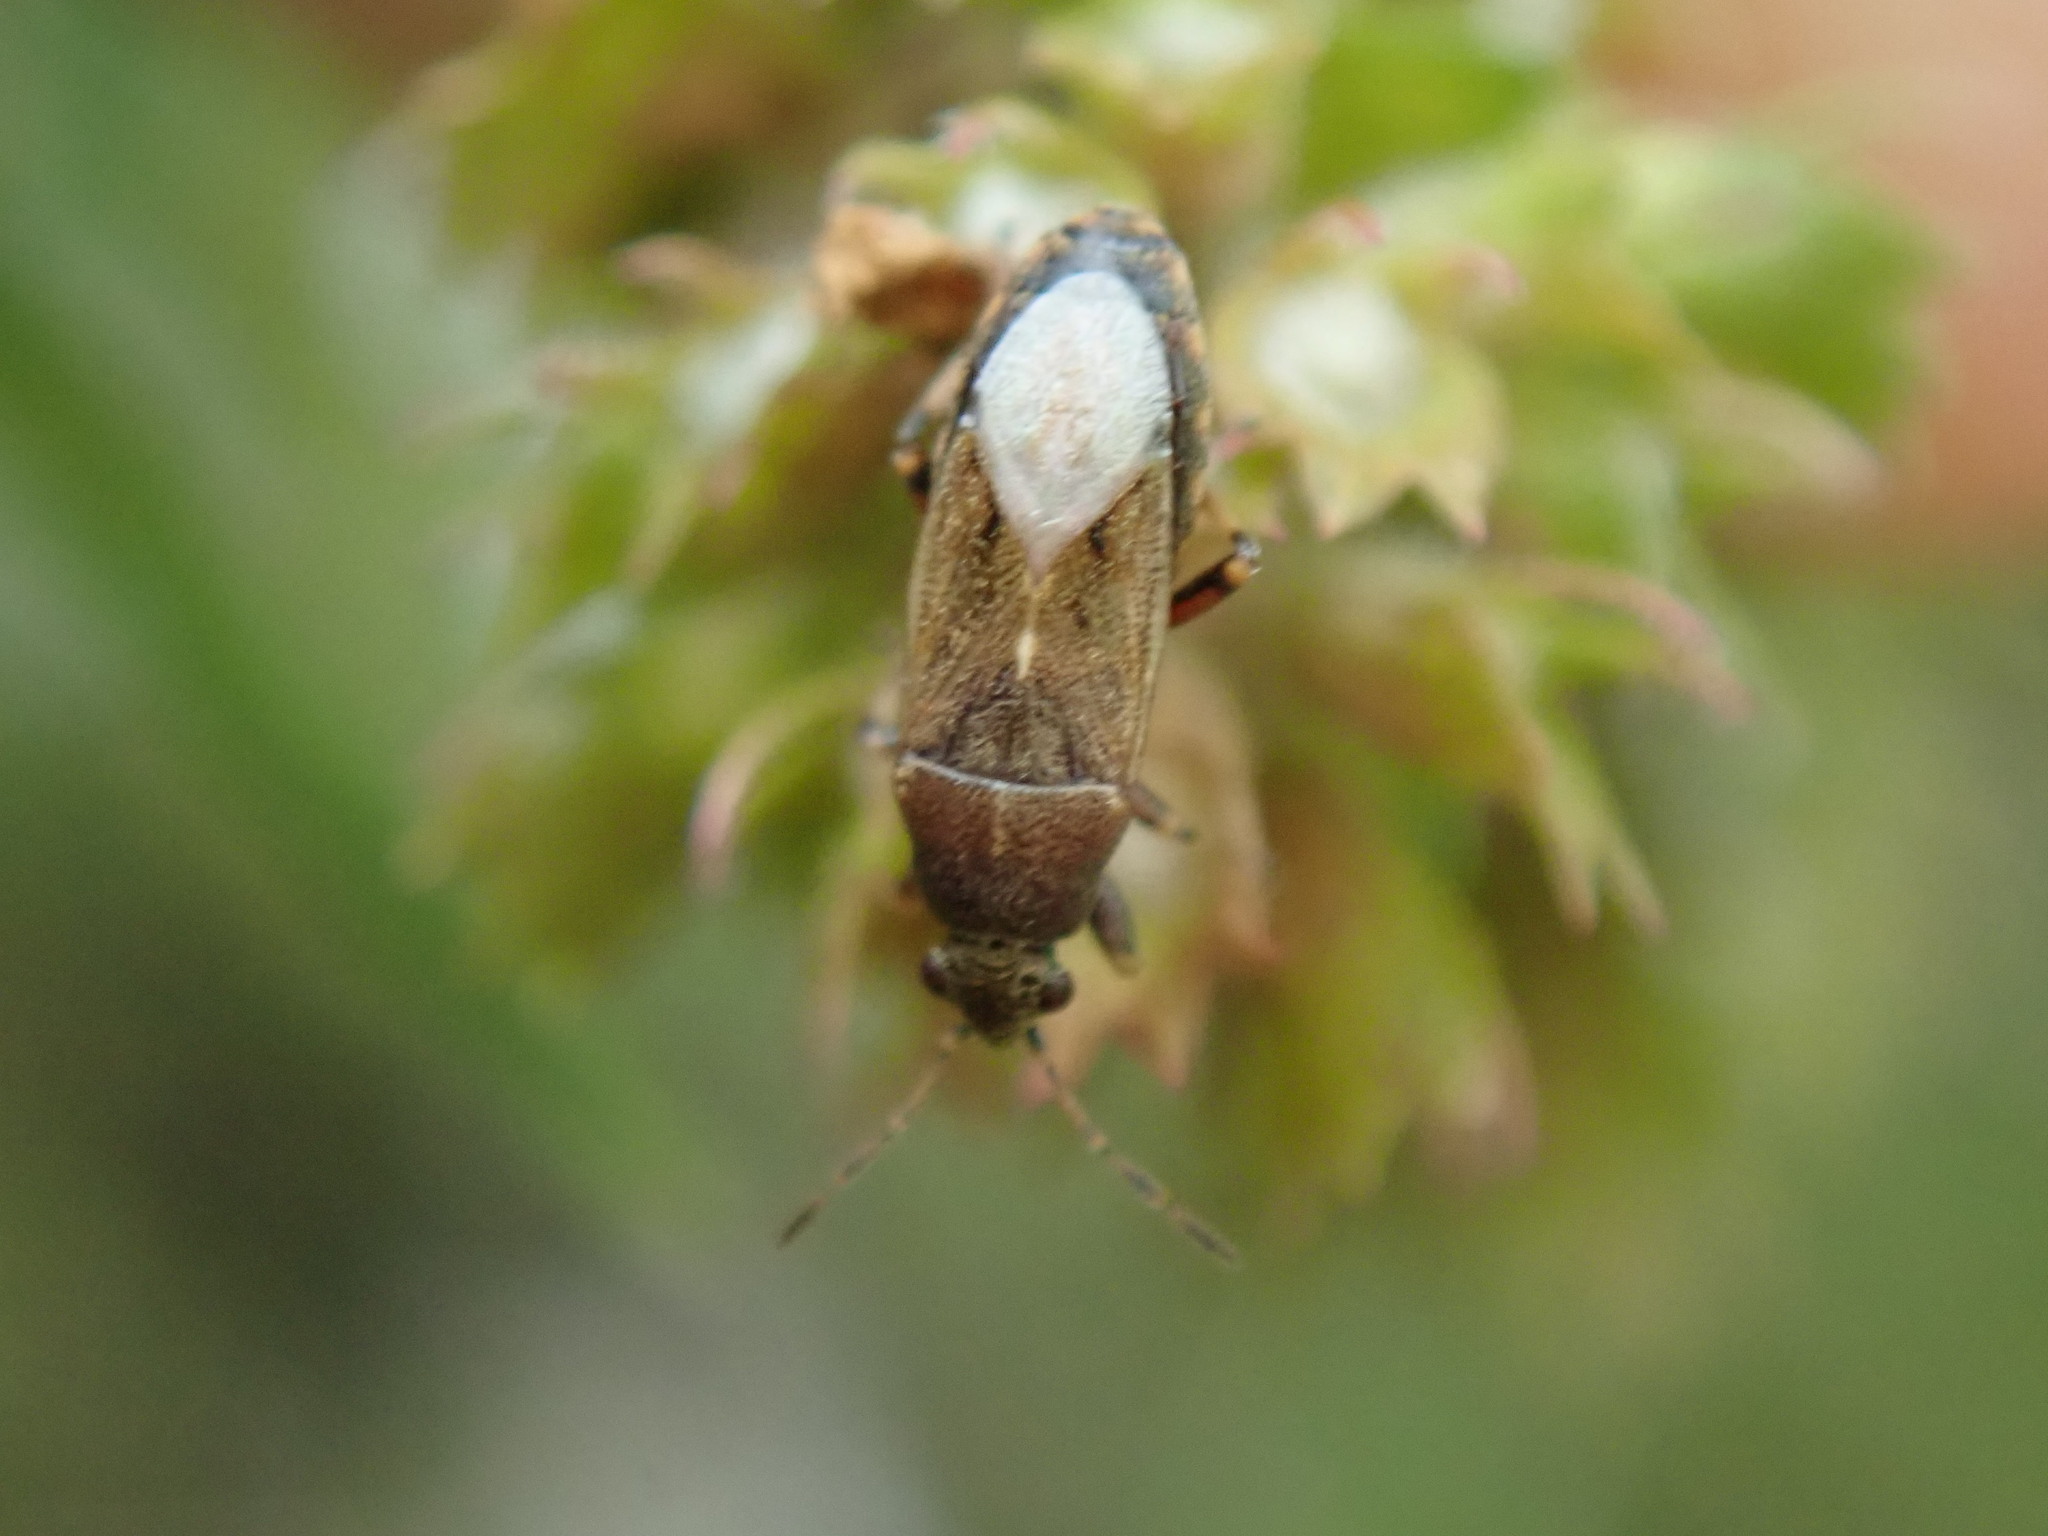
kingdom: Animalia
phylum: Arthropoda
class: Insecta
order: Hemiptera
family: Heterogastridae
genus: Heterogaster
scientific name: Heterogaster artemisiae
